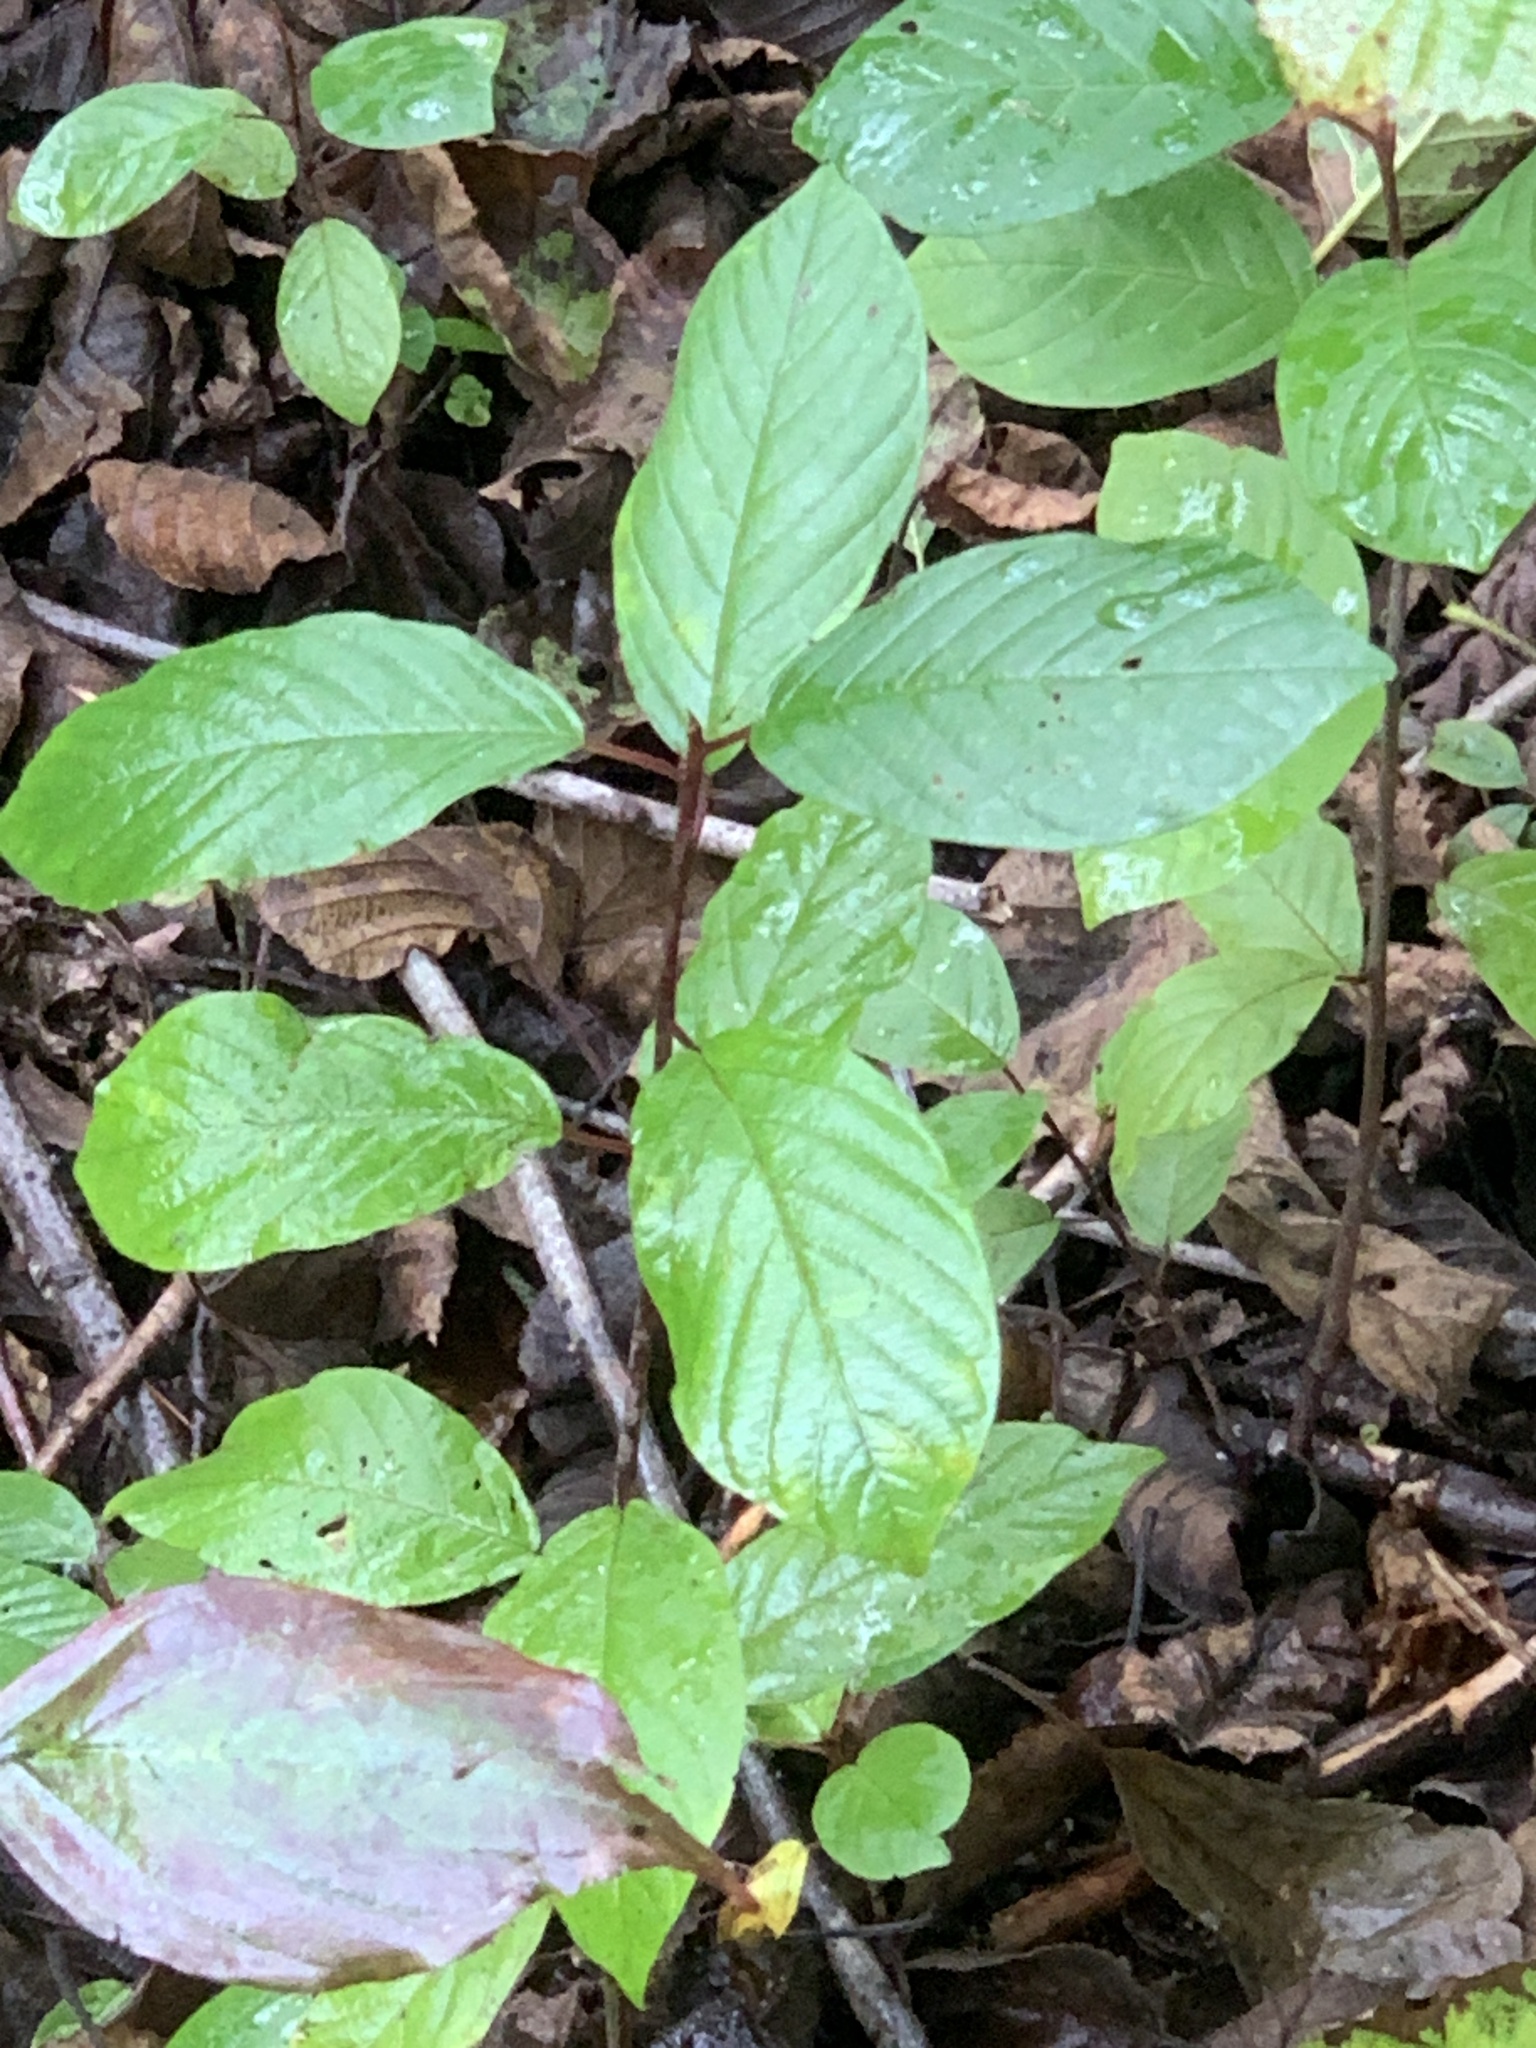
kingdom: Plantae
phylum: Tracheophyta
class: Magnoliopsida
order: Rosales
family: Rhamnaceae
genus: Frangula
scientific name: Frangula alnus
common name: Alder buckthorn
